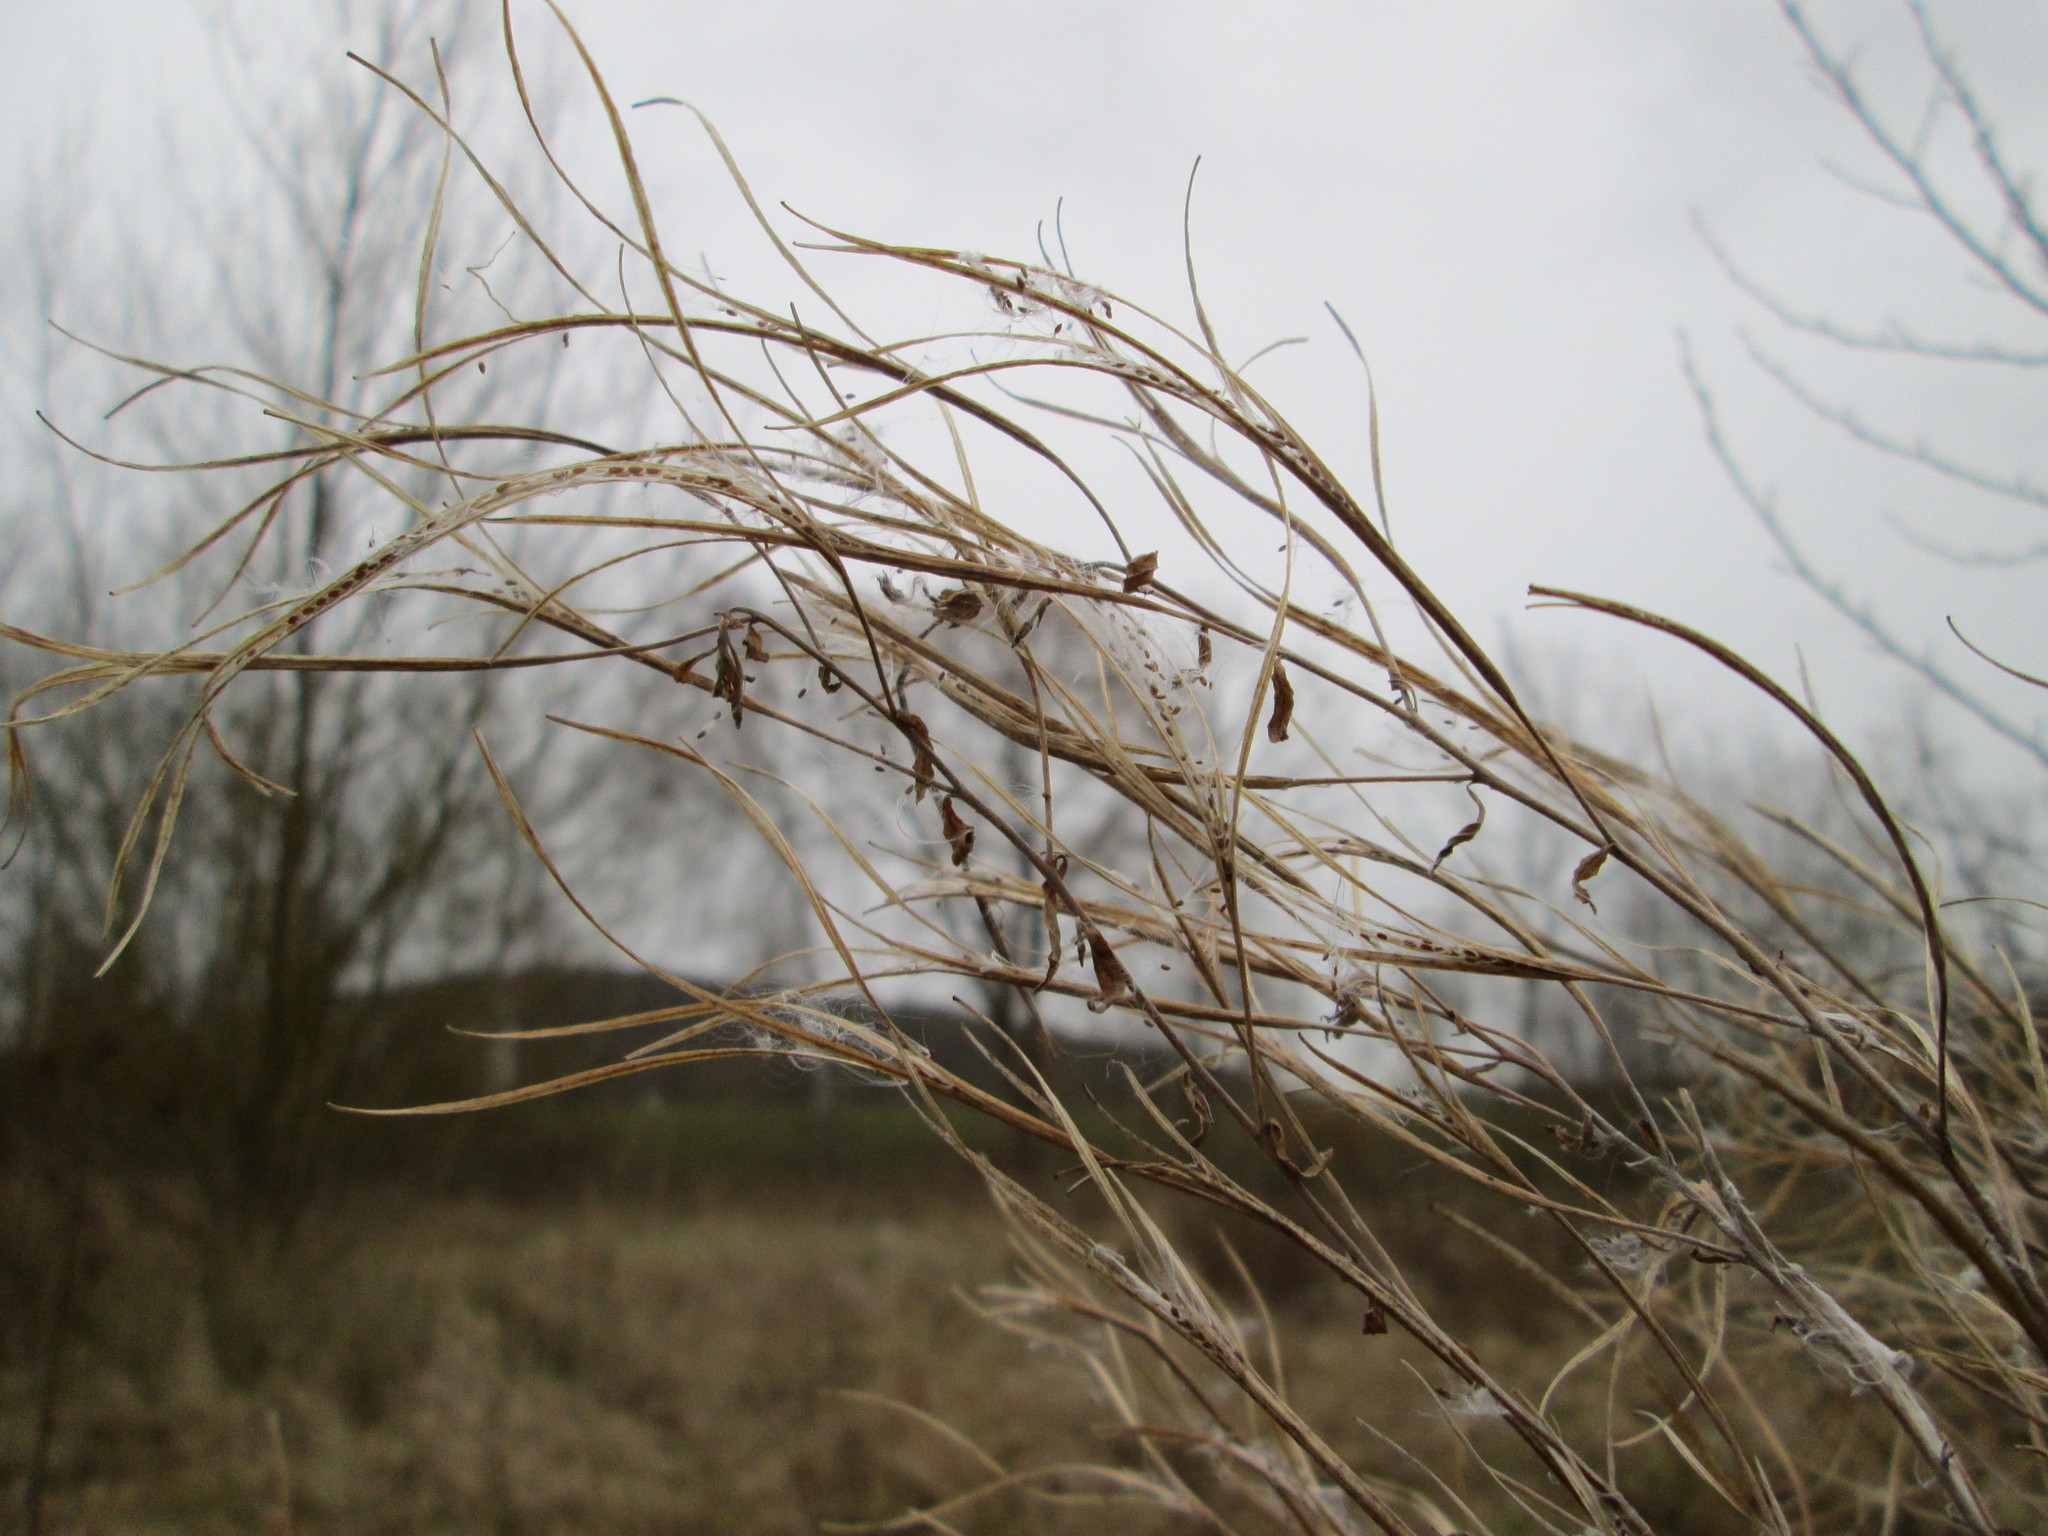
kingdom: Plantae
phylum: Tracheophyta
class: Magnoliopsida
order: Myrtales
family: Onagraceae
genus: Epilobium
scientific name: Epilobium hirsutum
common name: Great willowherb
